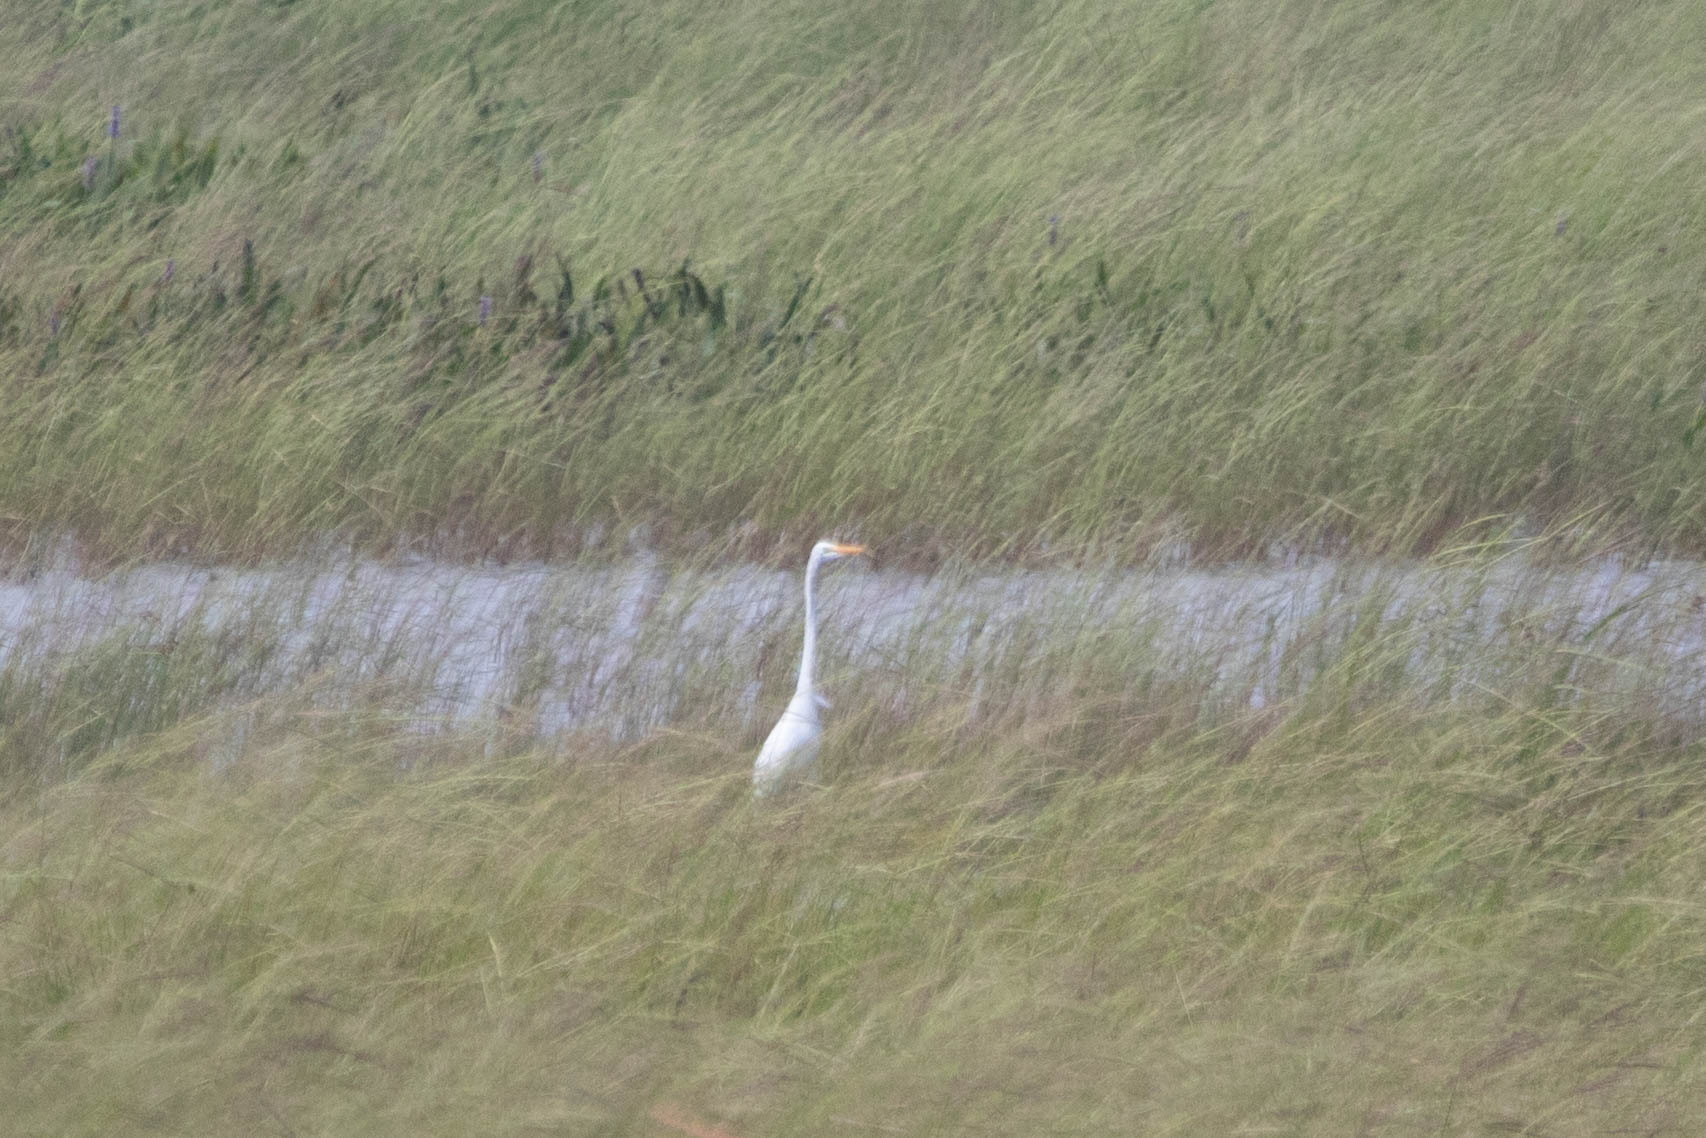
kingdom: Animalia
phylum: Chordata
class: Aves
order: Pelecaniformes
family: Ardeidae
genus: Ardea
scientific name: Ardea alba
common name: Great egret
